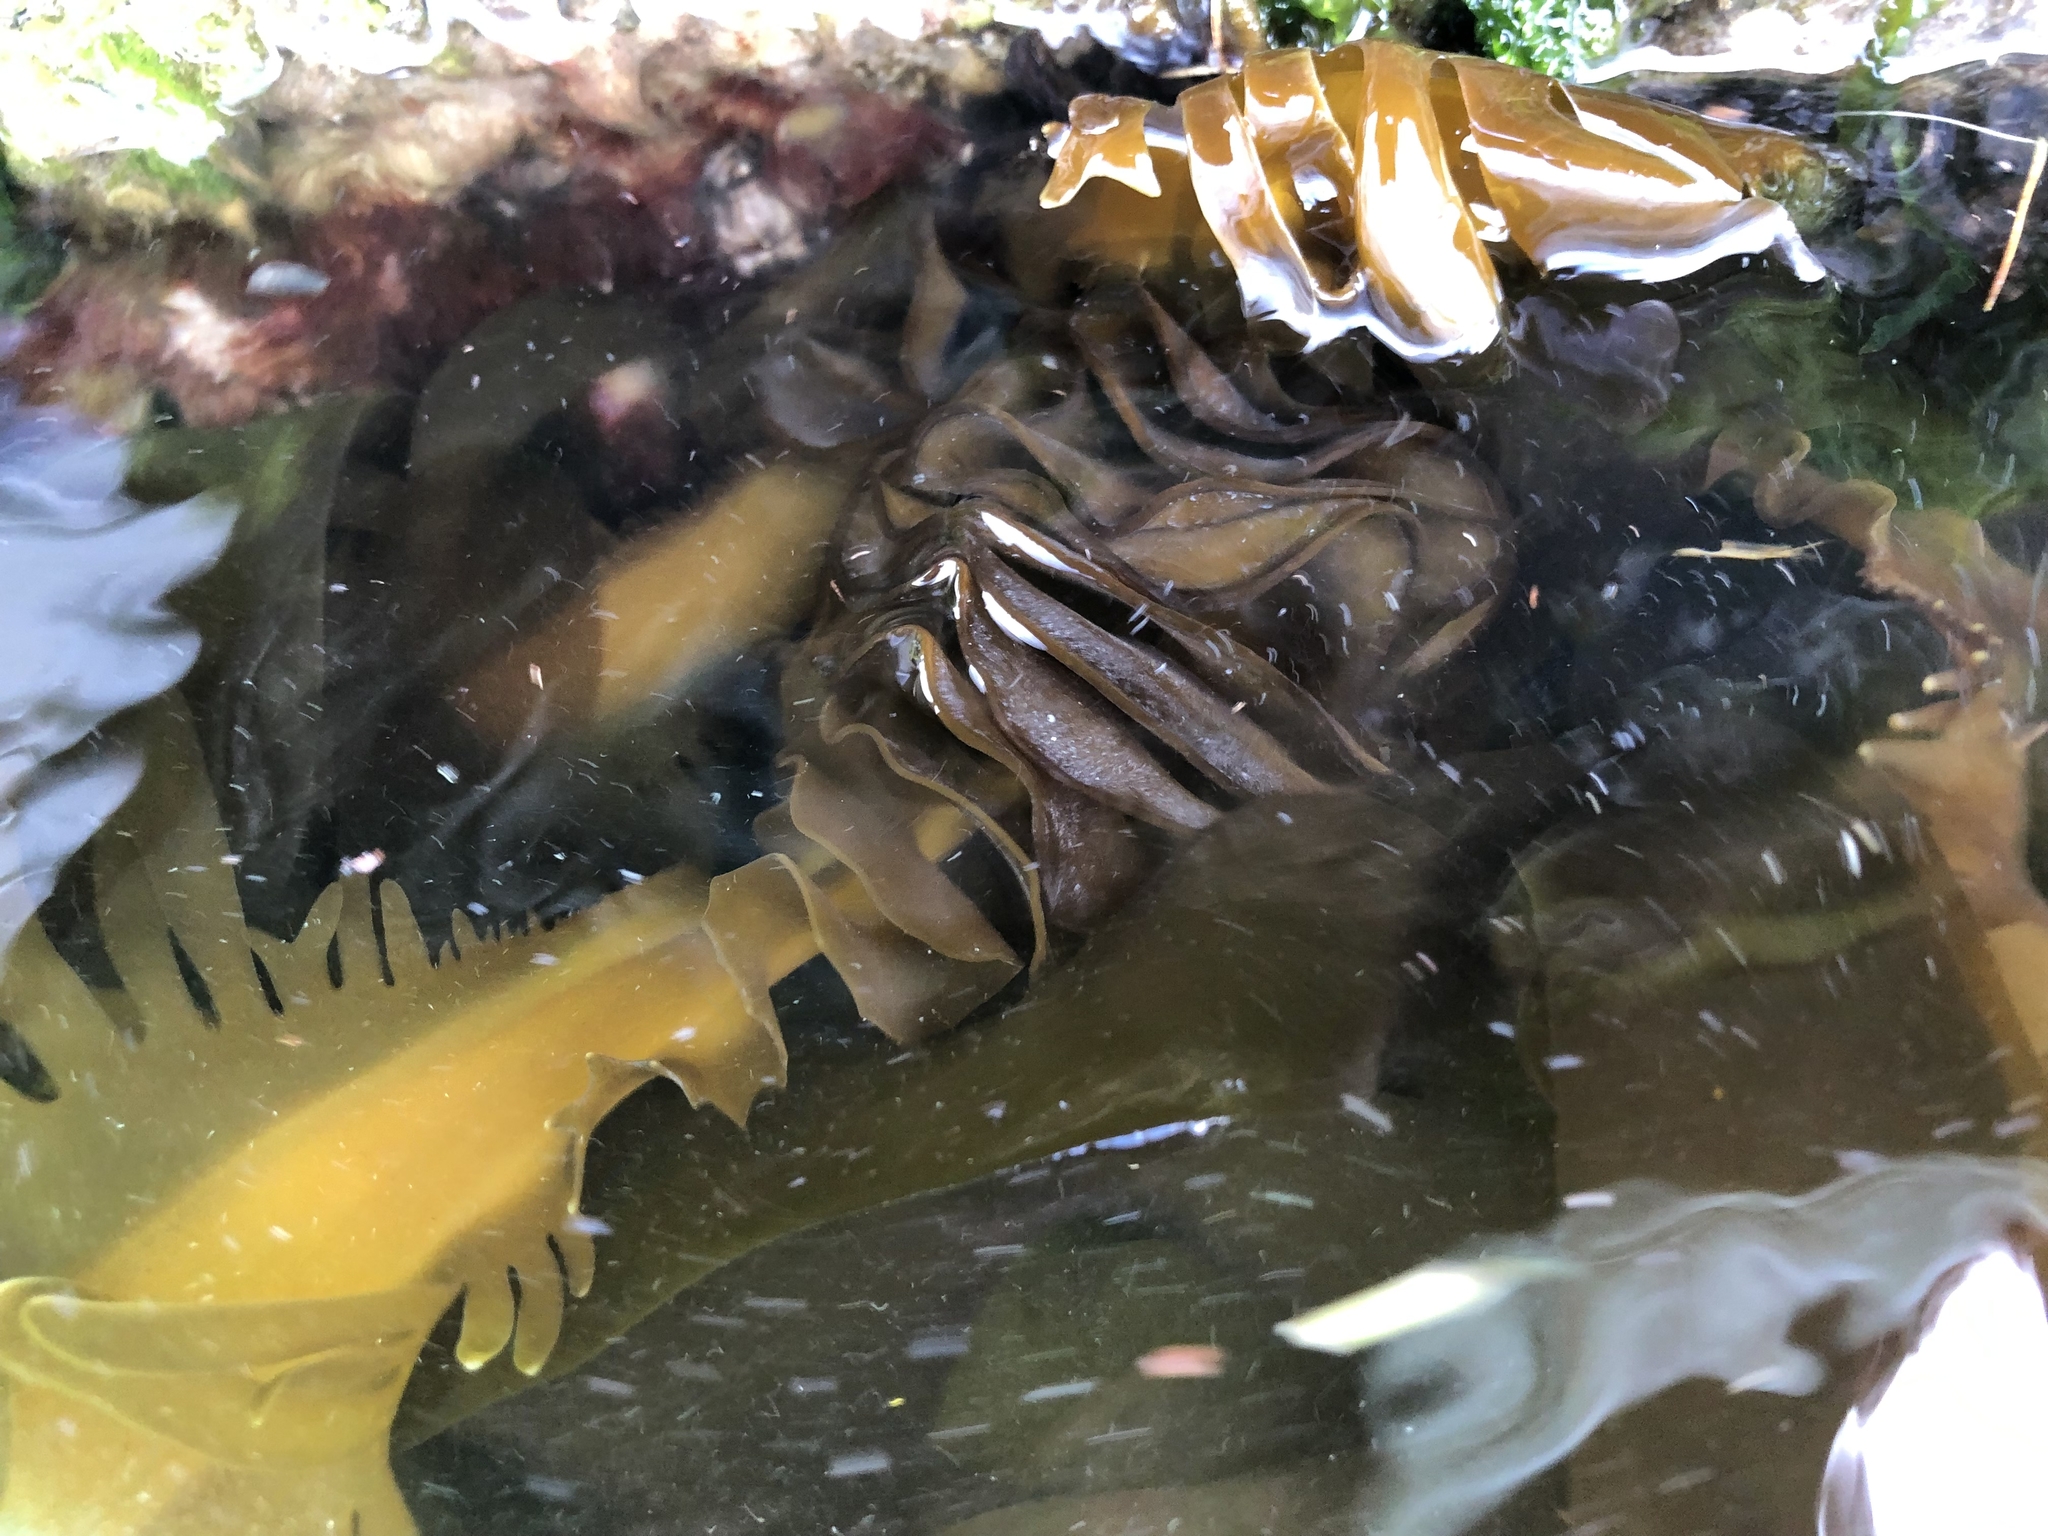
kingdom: Chromista
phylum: Ochrophyta
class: Phaeophyceae
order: Laminariales
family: Alariaceae
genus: Undaria
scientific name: Undaria pinnatifida
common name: Asian kelp
